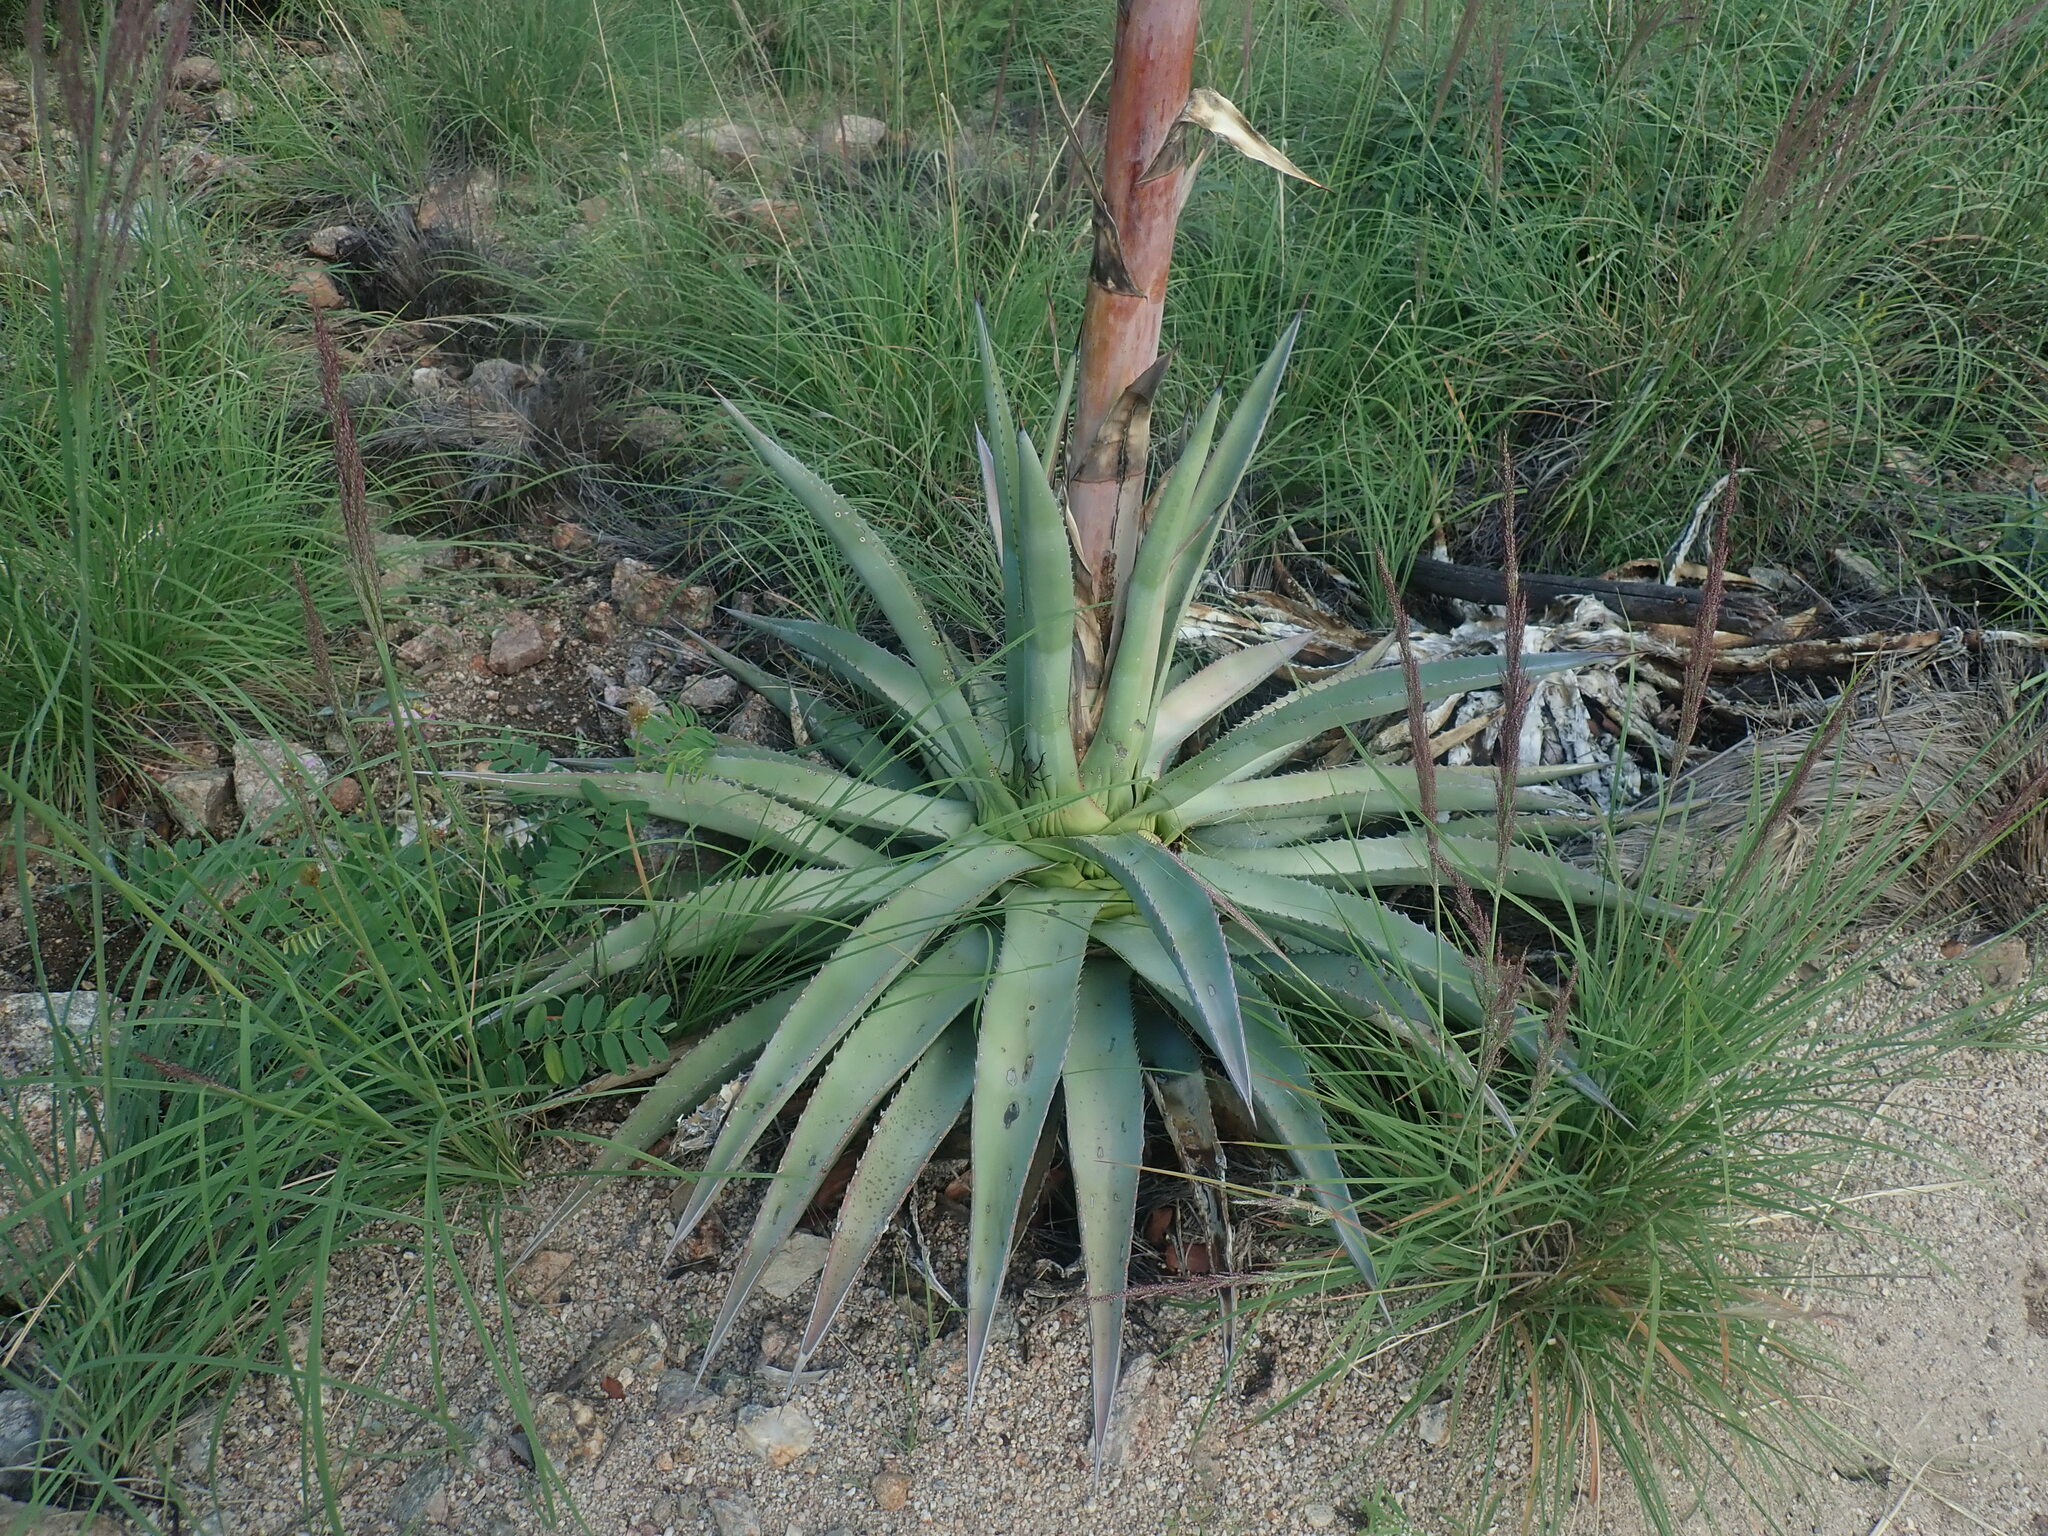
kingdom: Plantae
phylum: Tracheophyta
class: Liliopsida
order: Asparagales
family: Asparagaceae
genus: Agave
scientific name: Agave palmeri
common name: Palmer agave
